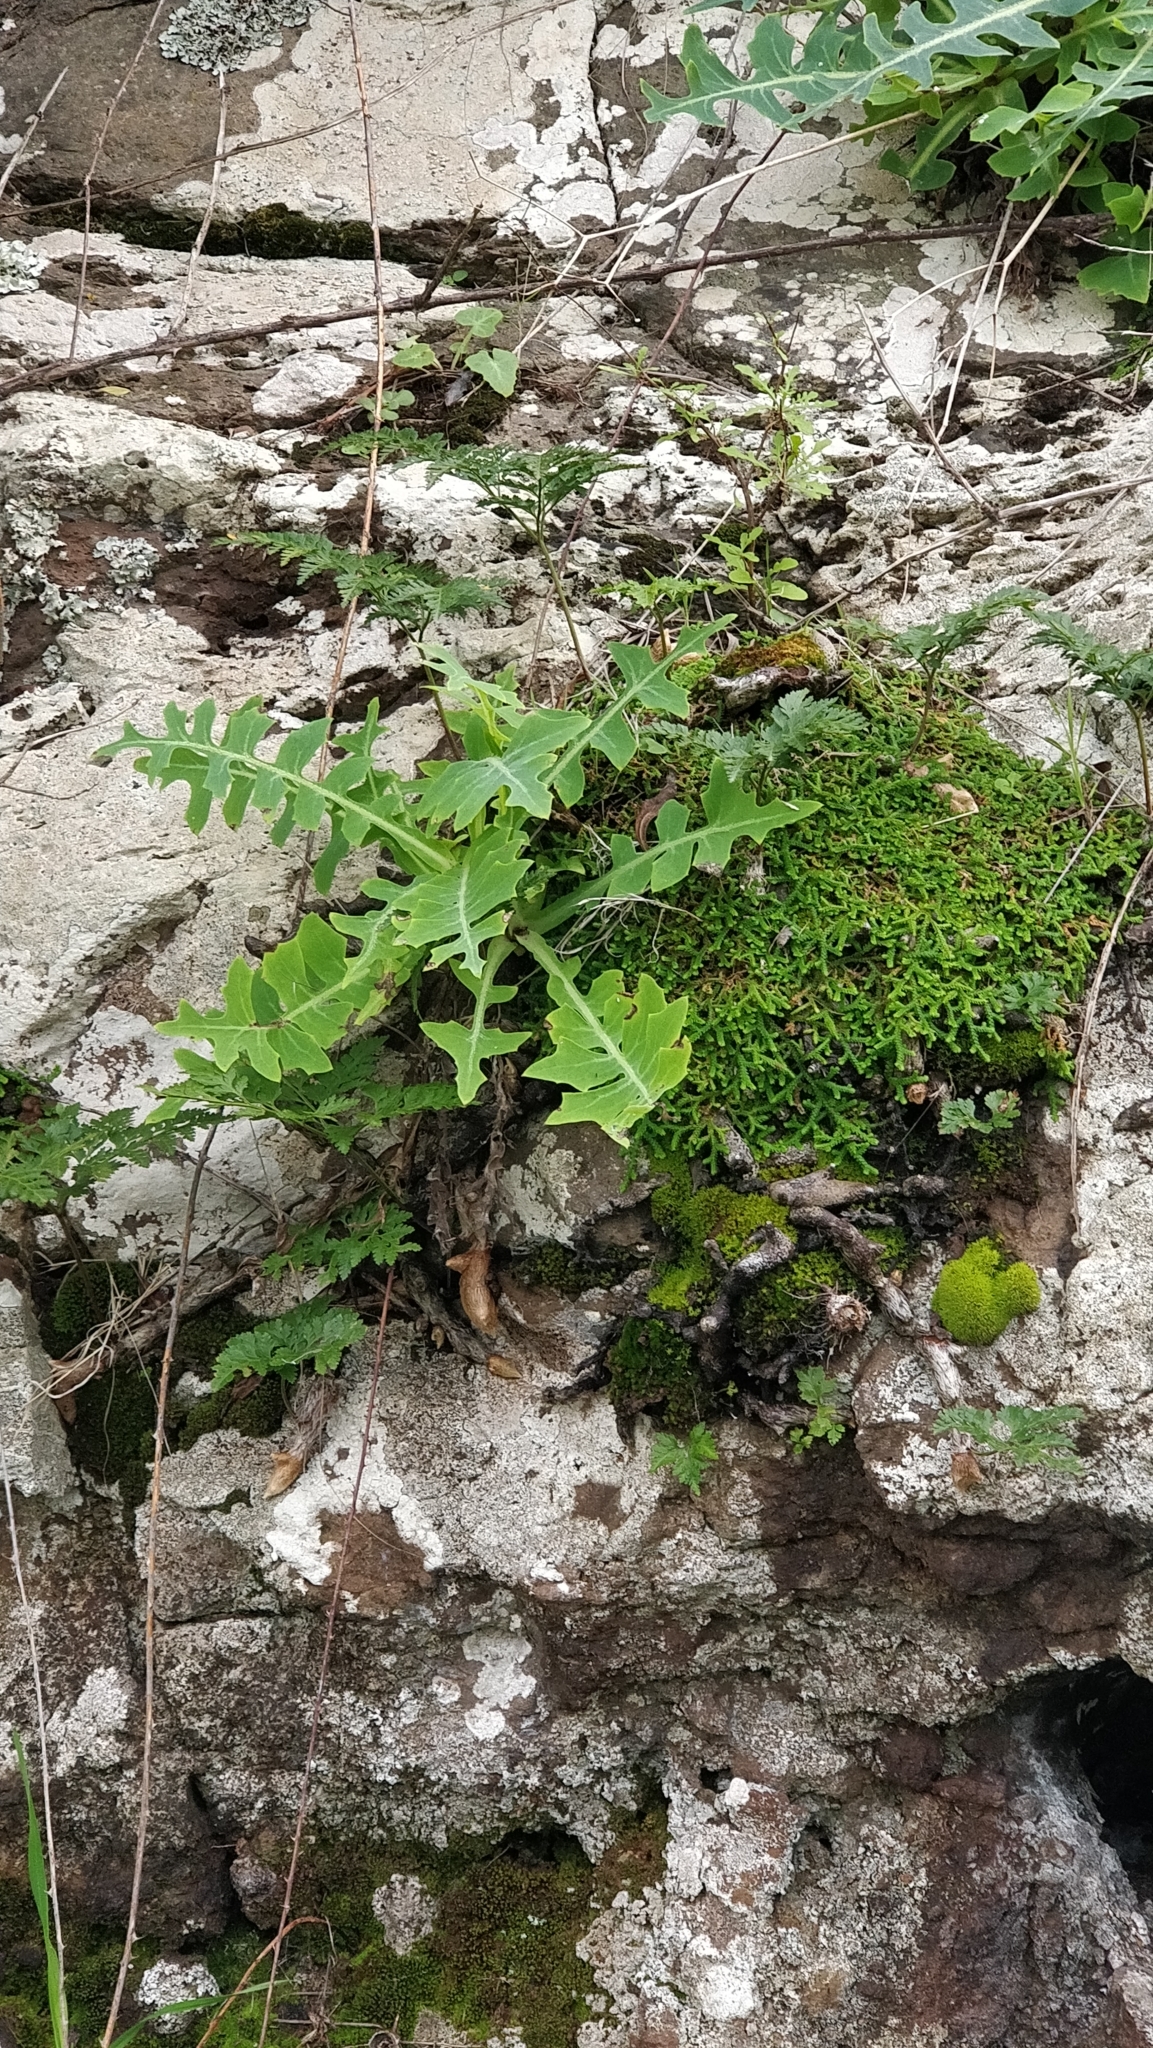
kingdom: Plantae
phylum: Tracheophyta
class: Magnoliopsida
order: Asterales
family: Asteraceae
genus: Sonchus
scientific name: Sonchus ustulatus
